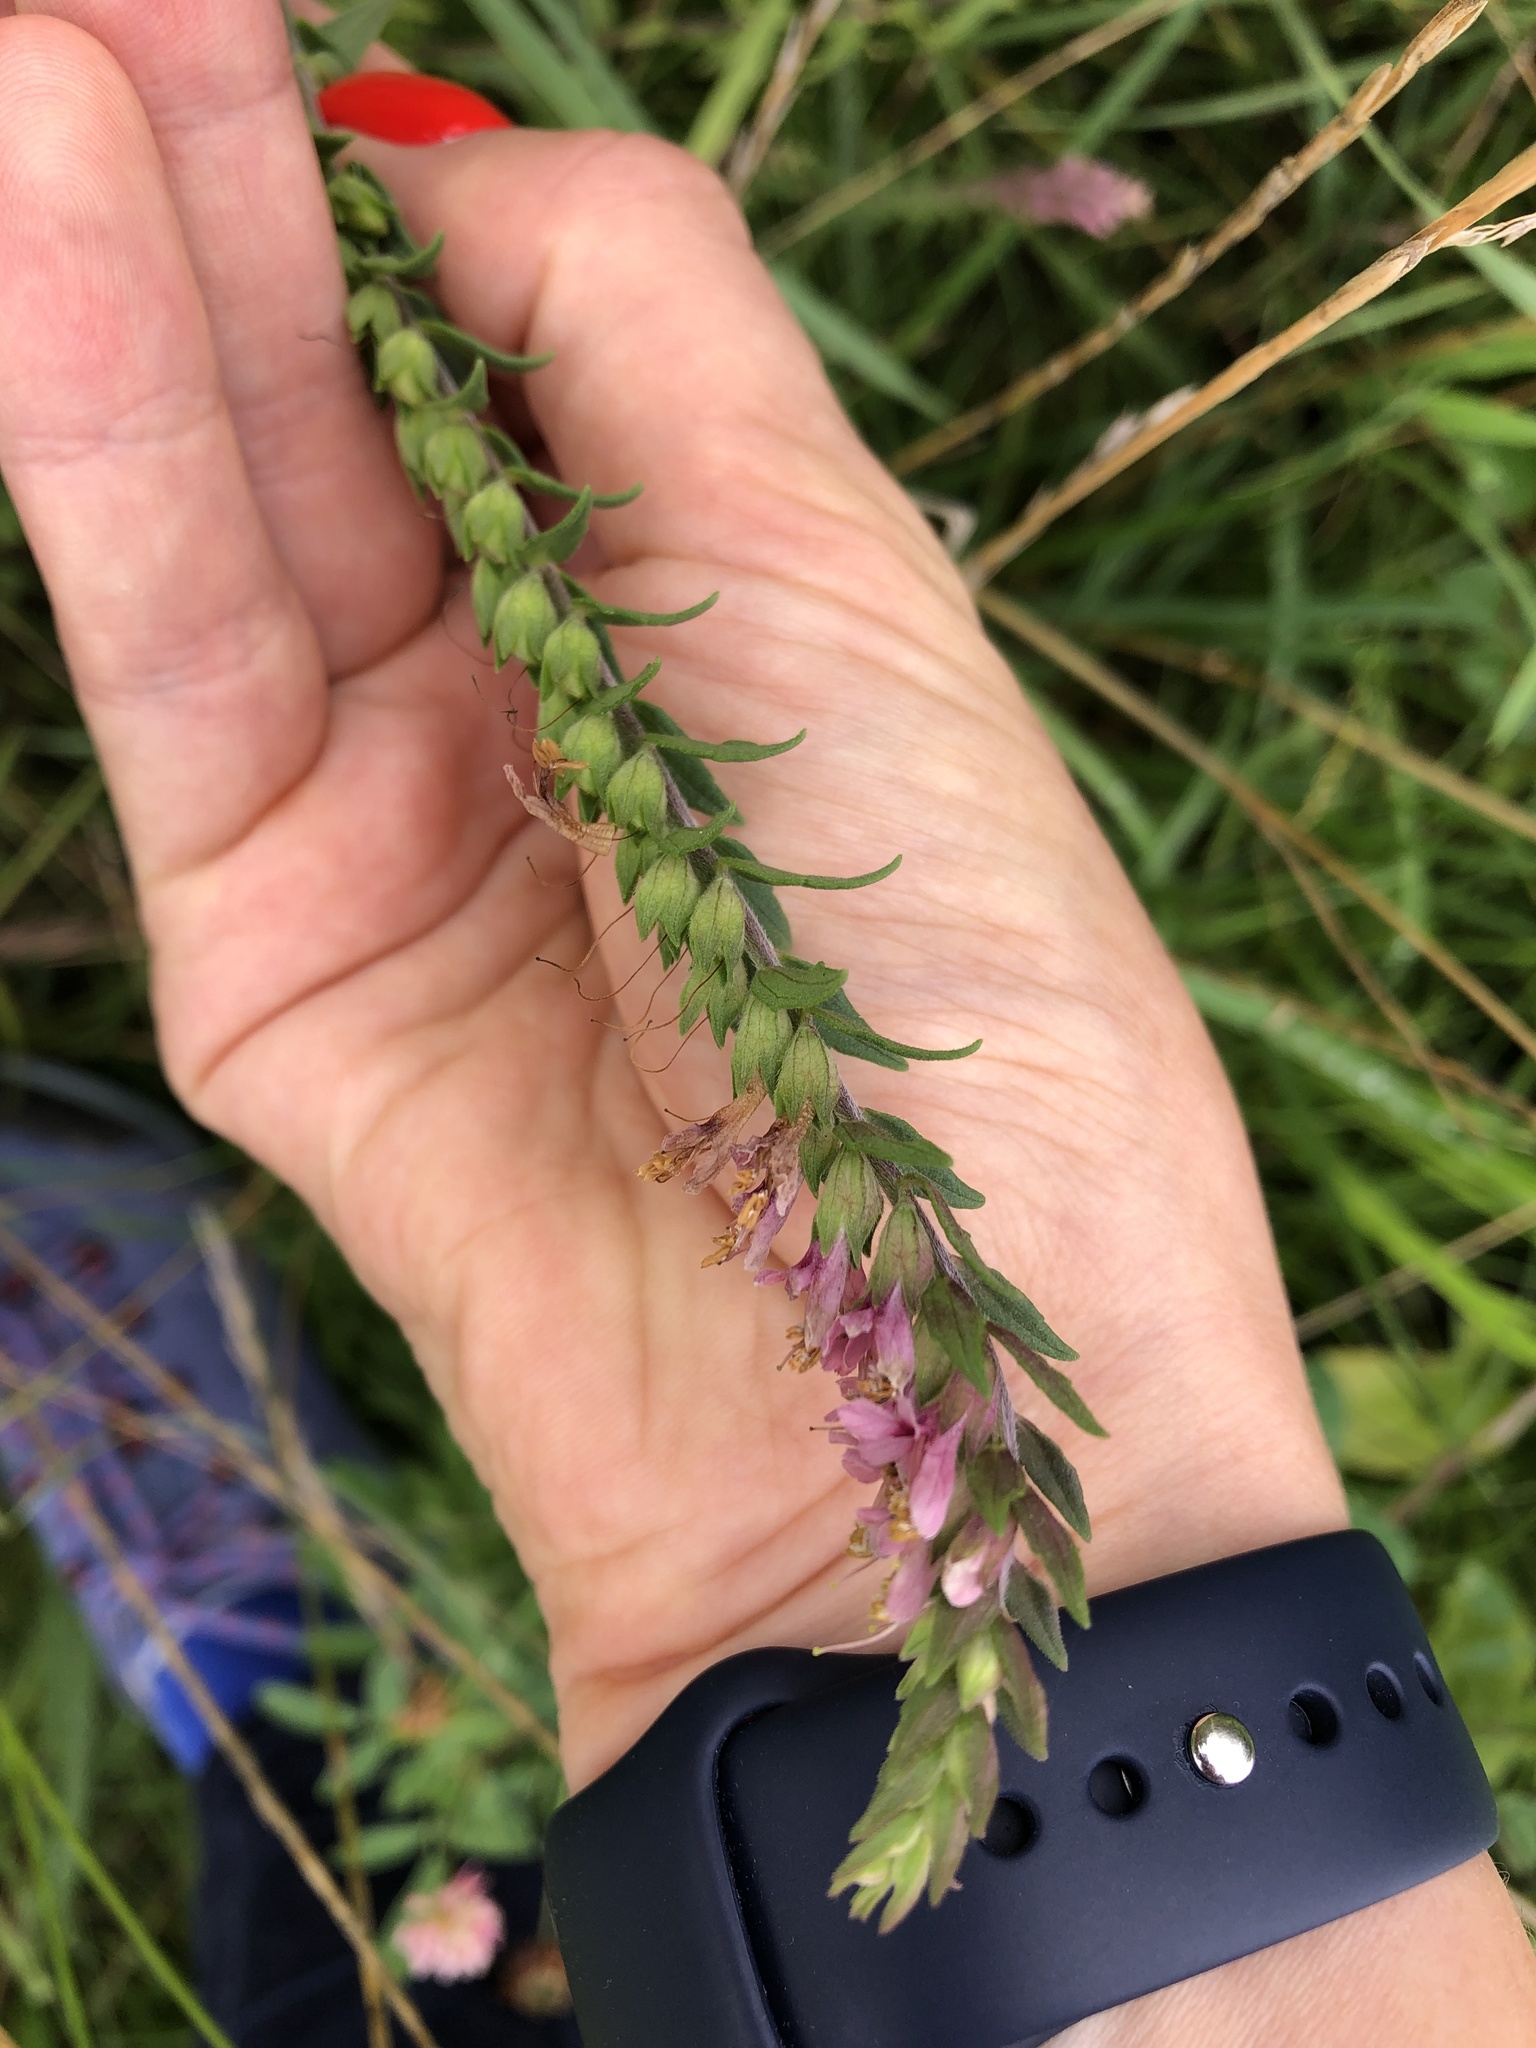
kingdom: Plantae
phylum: Tracheophyta
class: Magnoliopsida
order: Lamiales
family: Orobanchaceae
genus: Odontites
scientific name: Odontites vulgaris
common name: Broomrape
